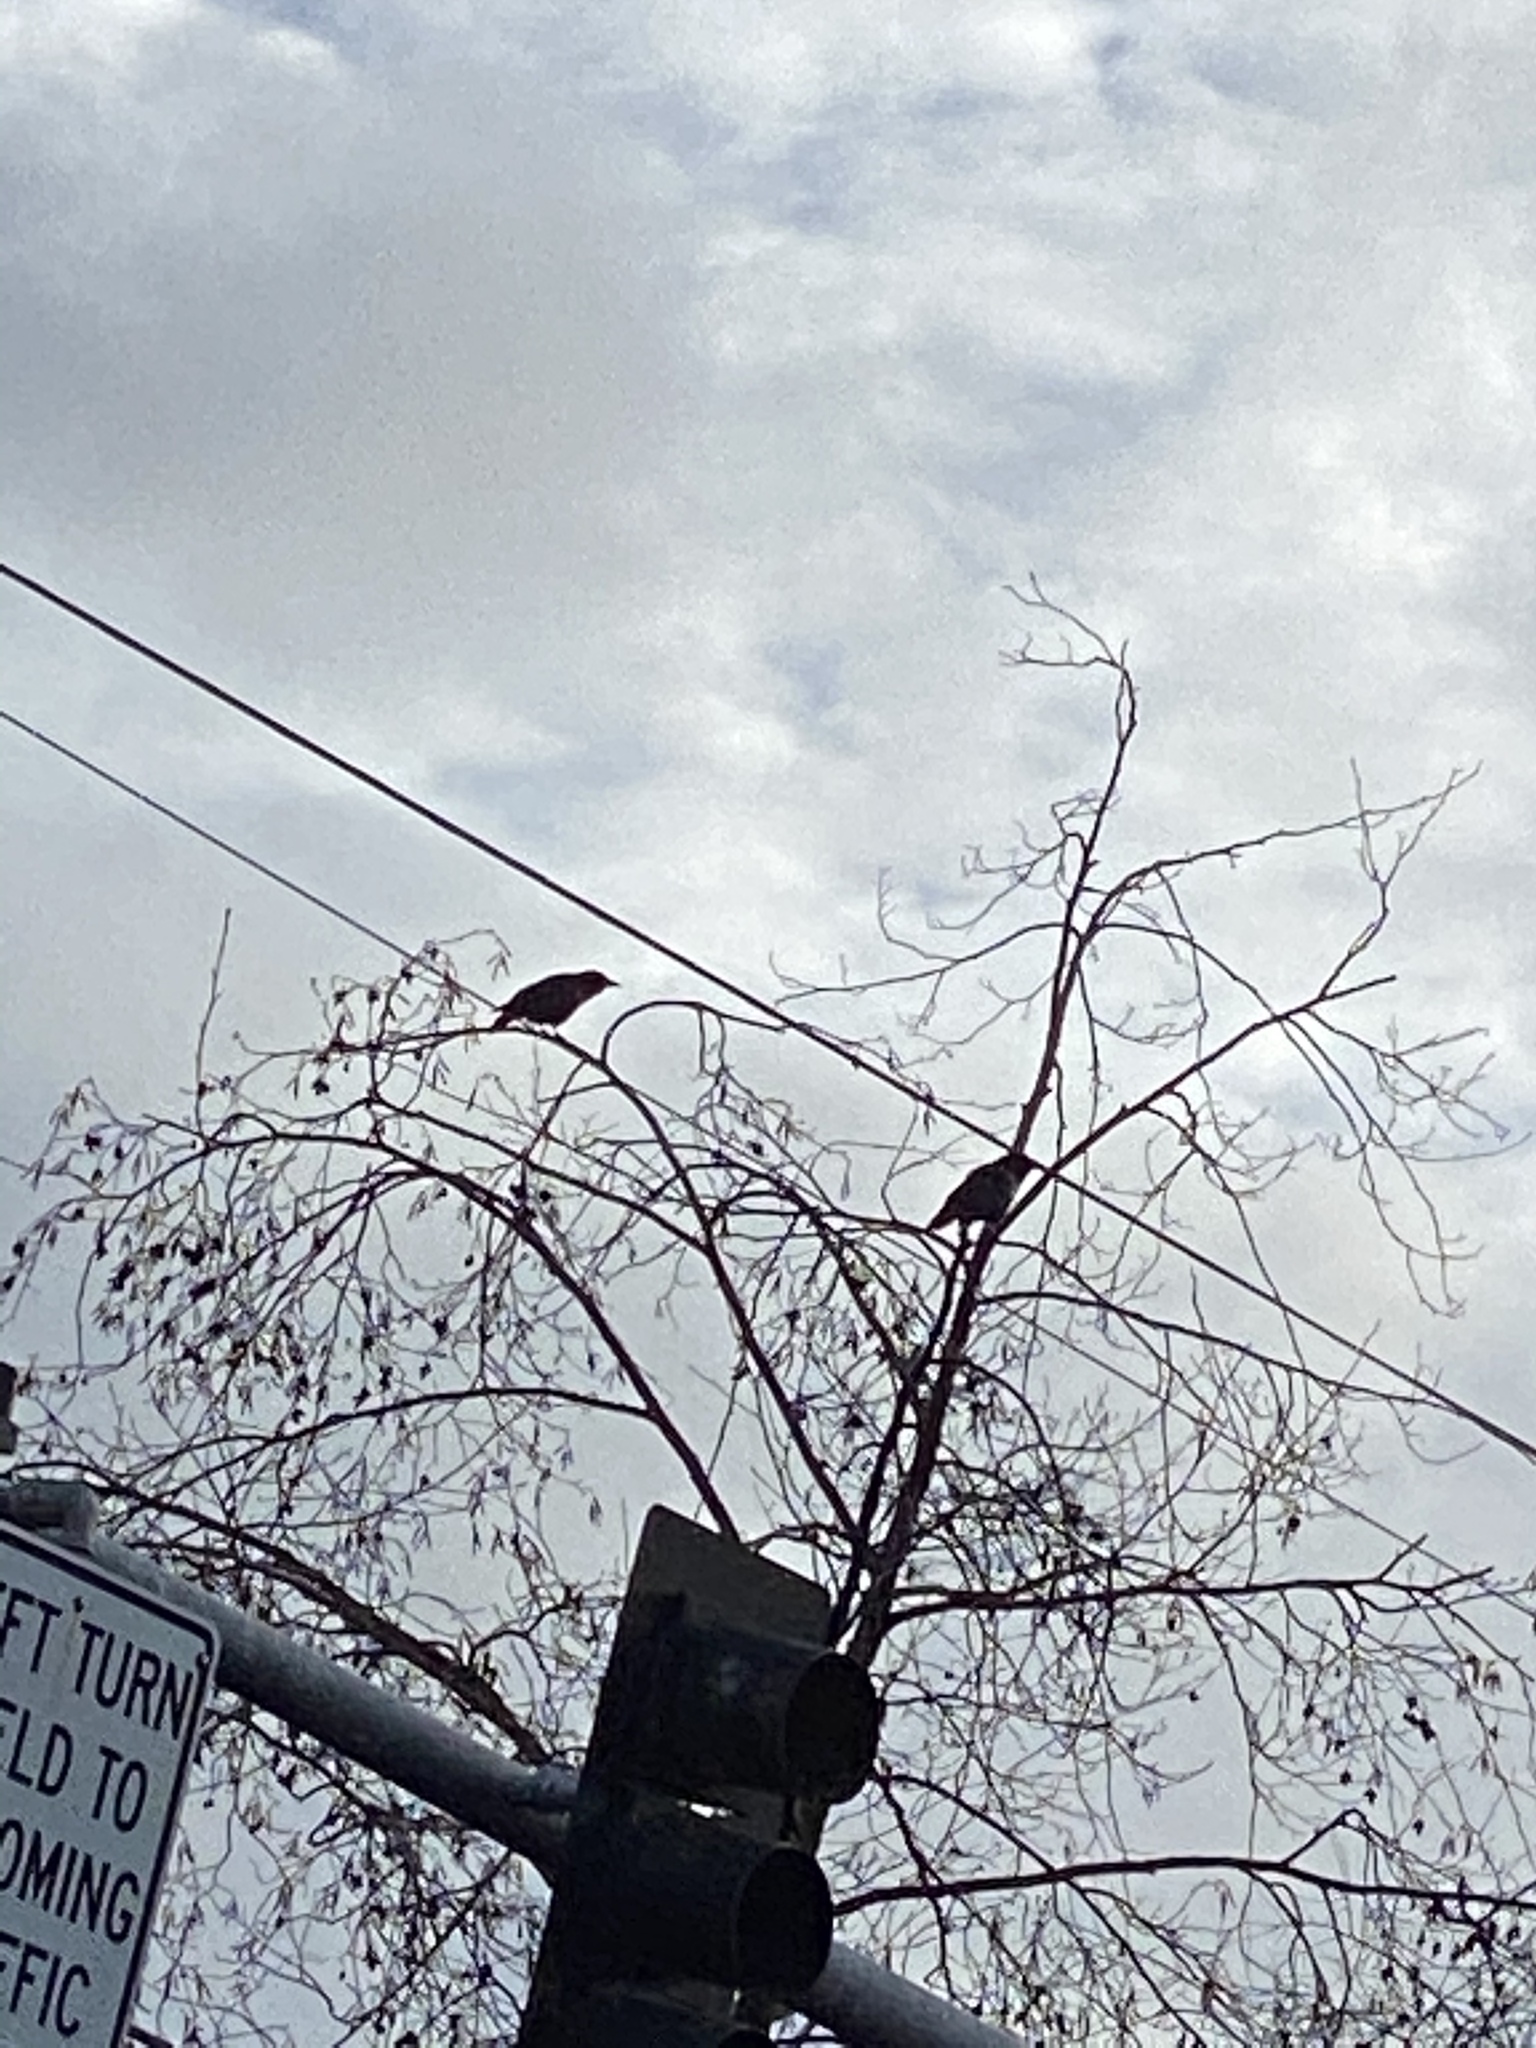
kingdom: Animalia
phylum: Chordata
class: Aves
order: Passeriformes
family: Corvidae
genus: Corvus
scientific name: Corvus brachyrhynchos
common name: American crow
